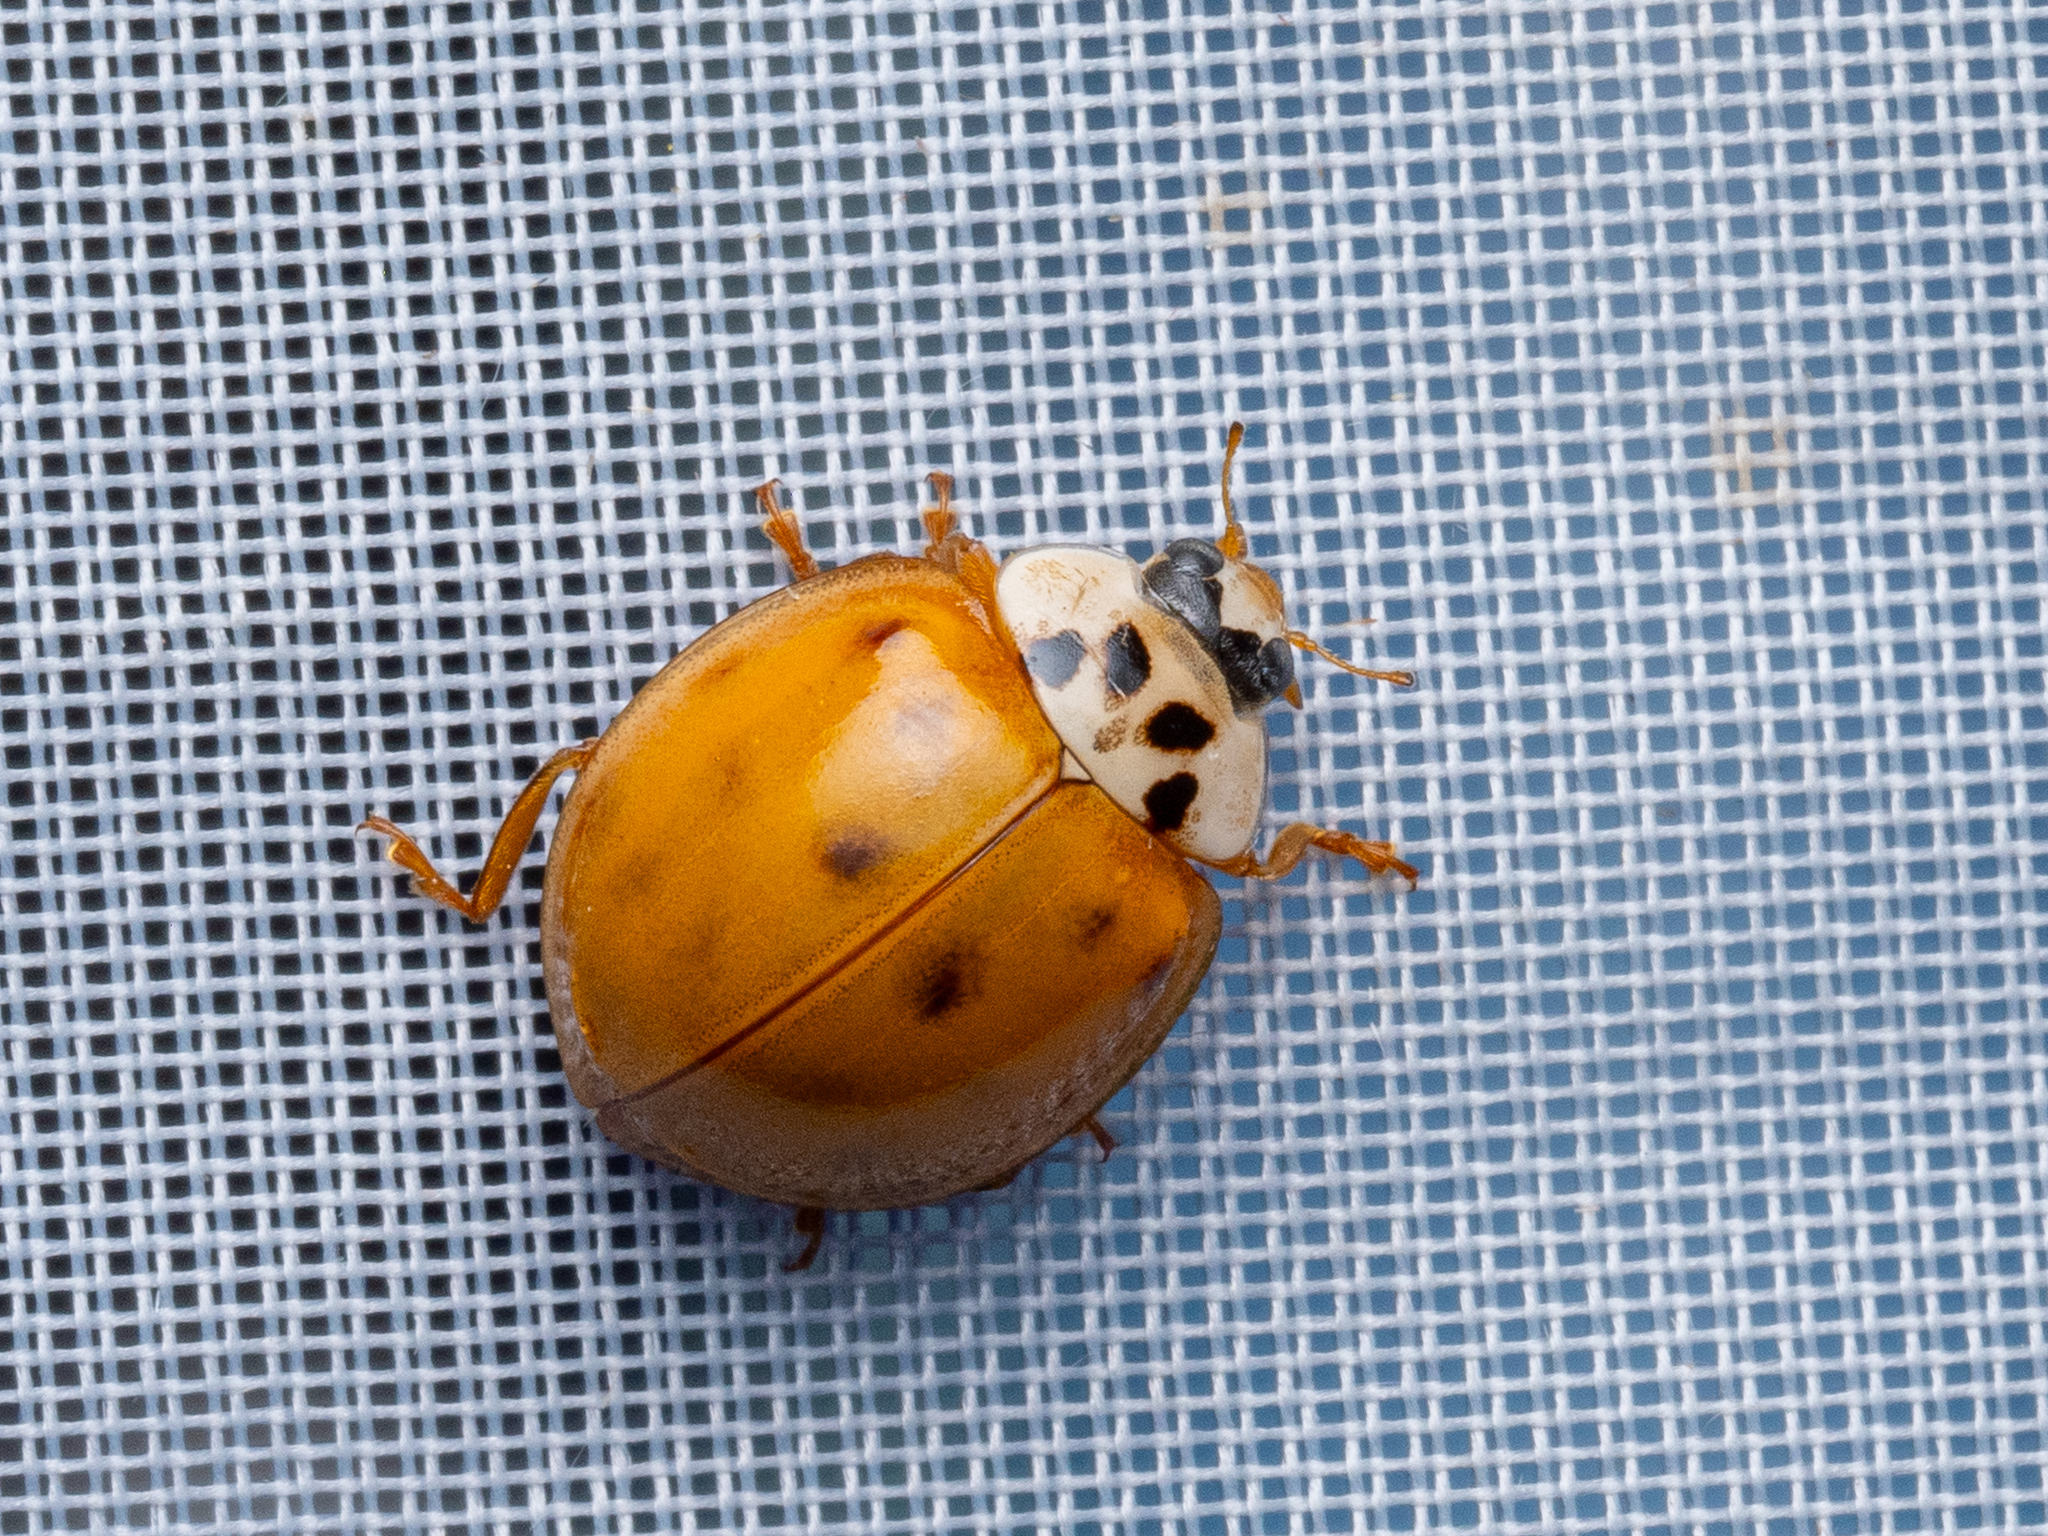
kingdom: Animalia
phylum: Arthropoda
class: Insecta
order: Coleoptera
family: Coccinellidae
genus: Harmonia
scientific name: Harmonia axyridis
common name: Harlequin ladybird
